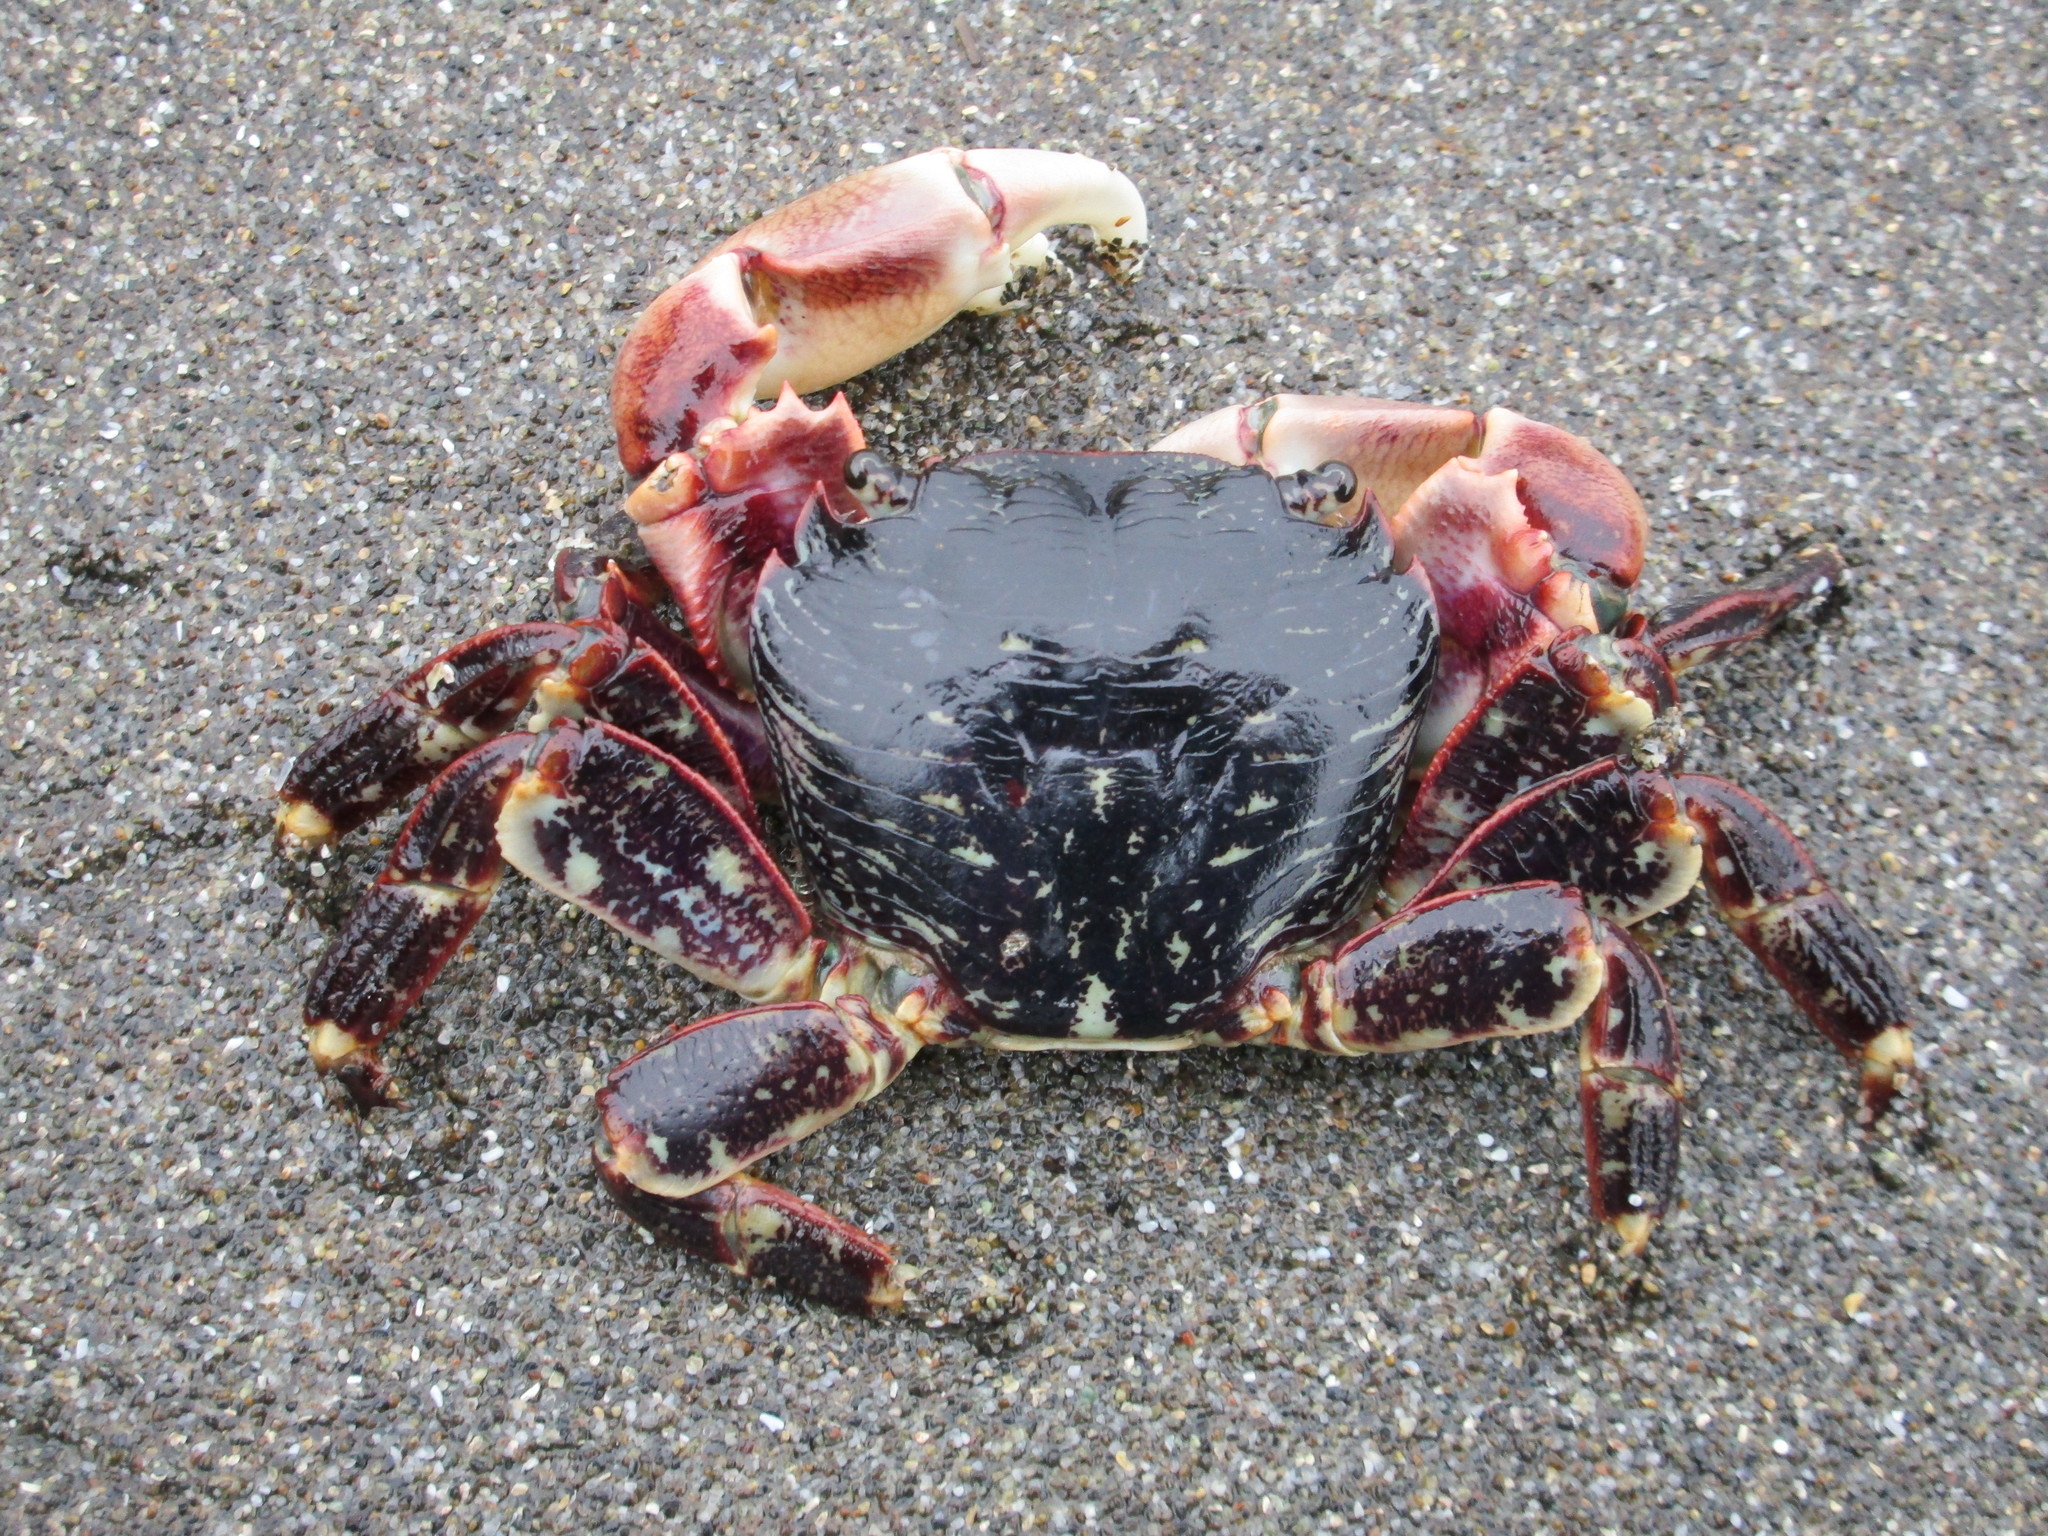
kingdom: Animalia
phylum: Arthropoda
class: Malacostraca
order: Decapoda
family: Grapsidae
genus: Pachygrapsus
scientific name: Pachygrapsus crassipes
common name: Striped shore crab
